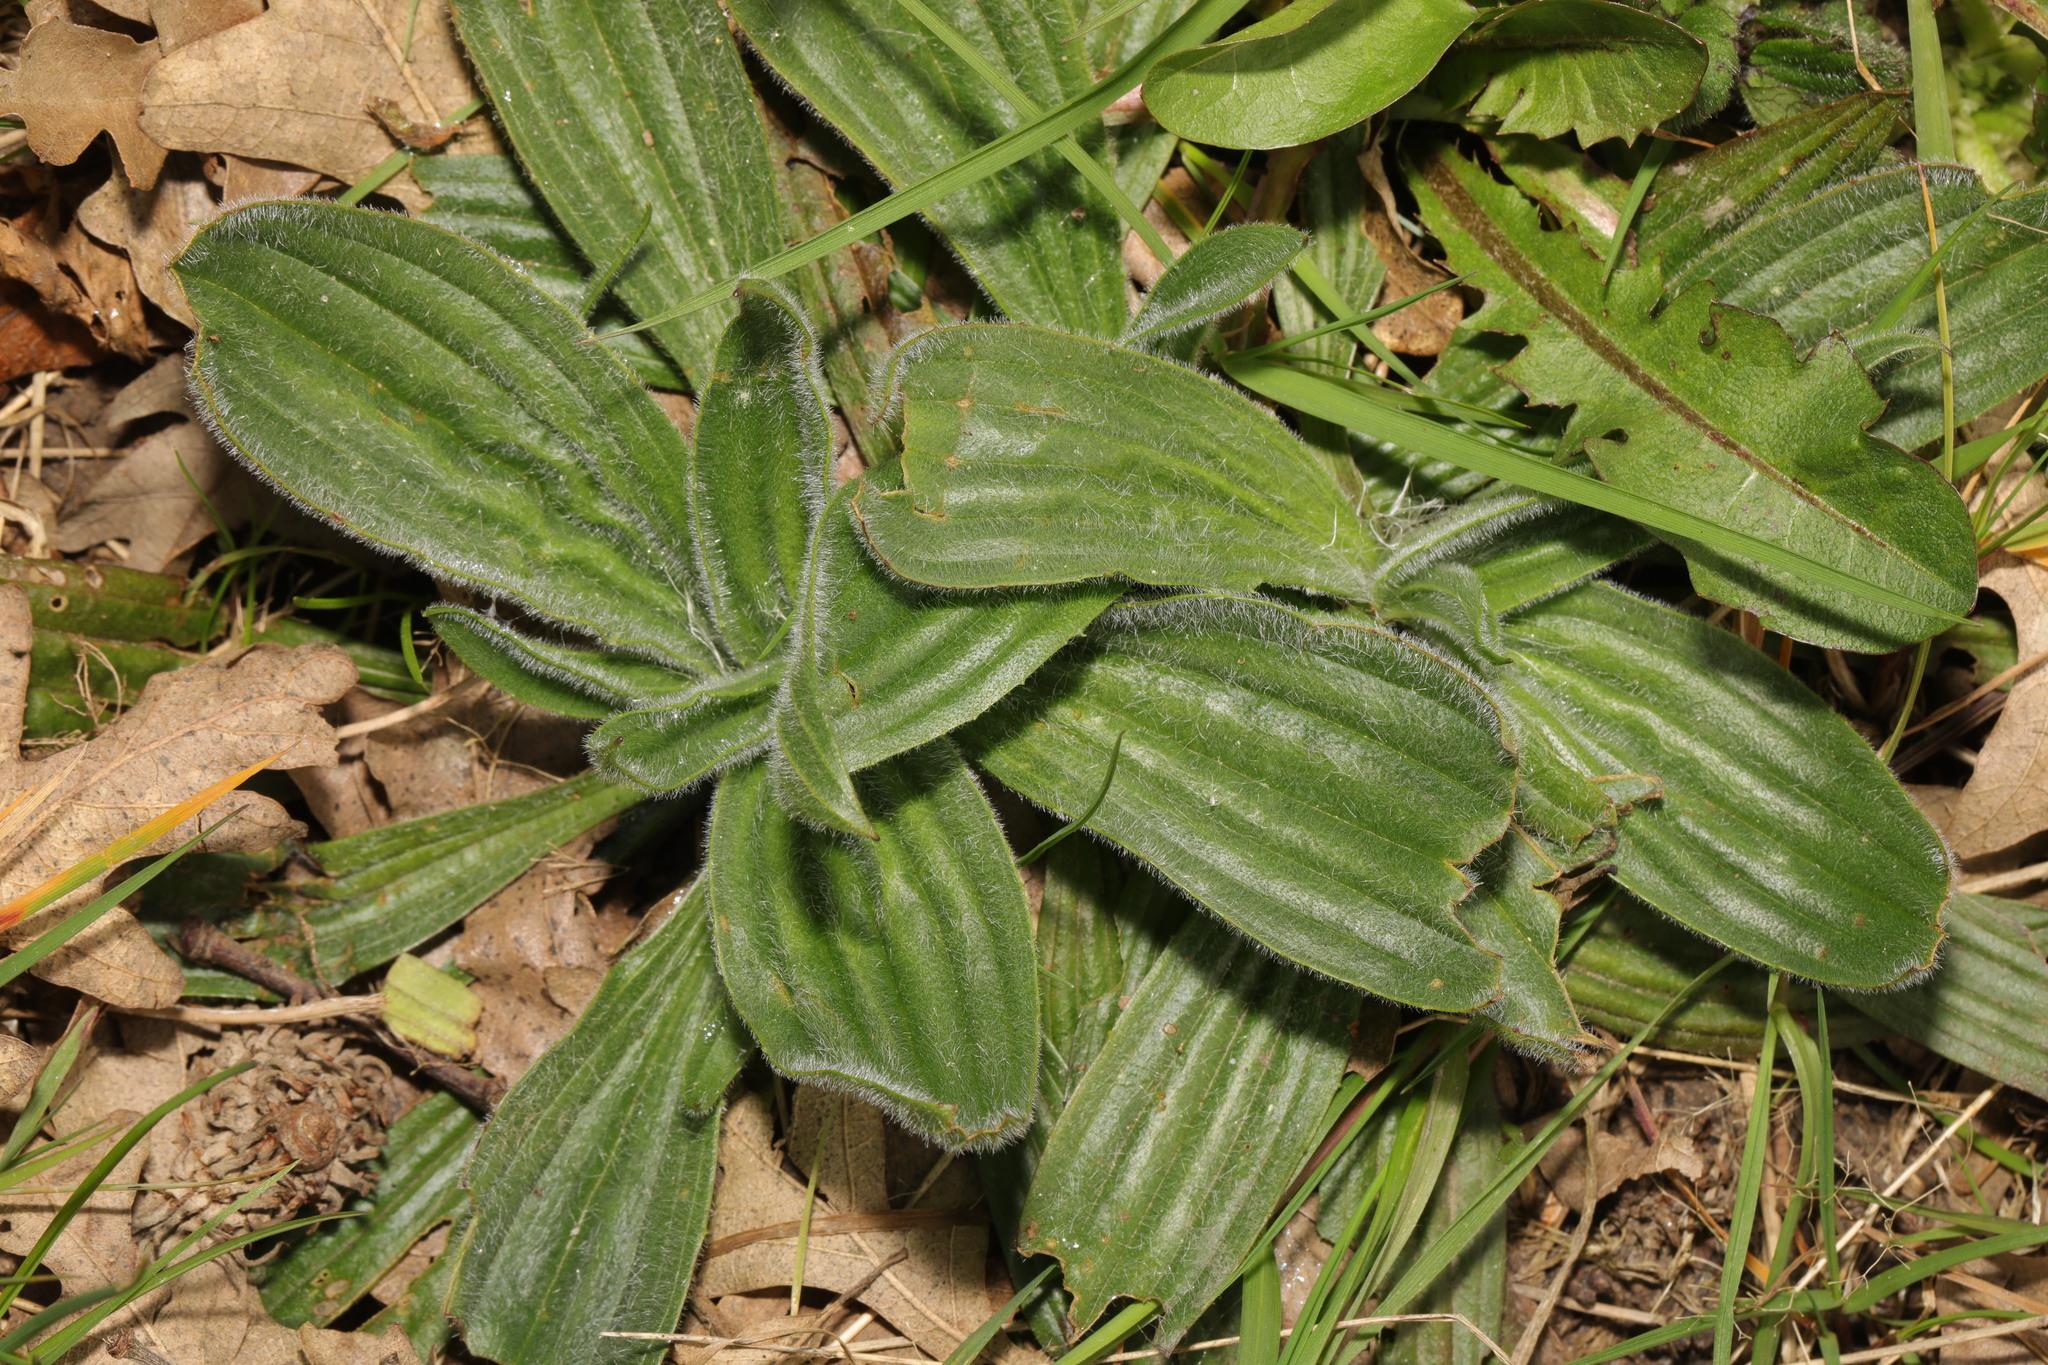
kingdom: Plantae
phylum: Tracheophyta
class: Magnoliopsida
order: Lamiales
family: Plantaginaceae
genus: Plantago
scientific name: Plantago media
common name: Hoary plantain
